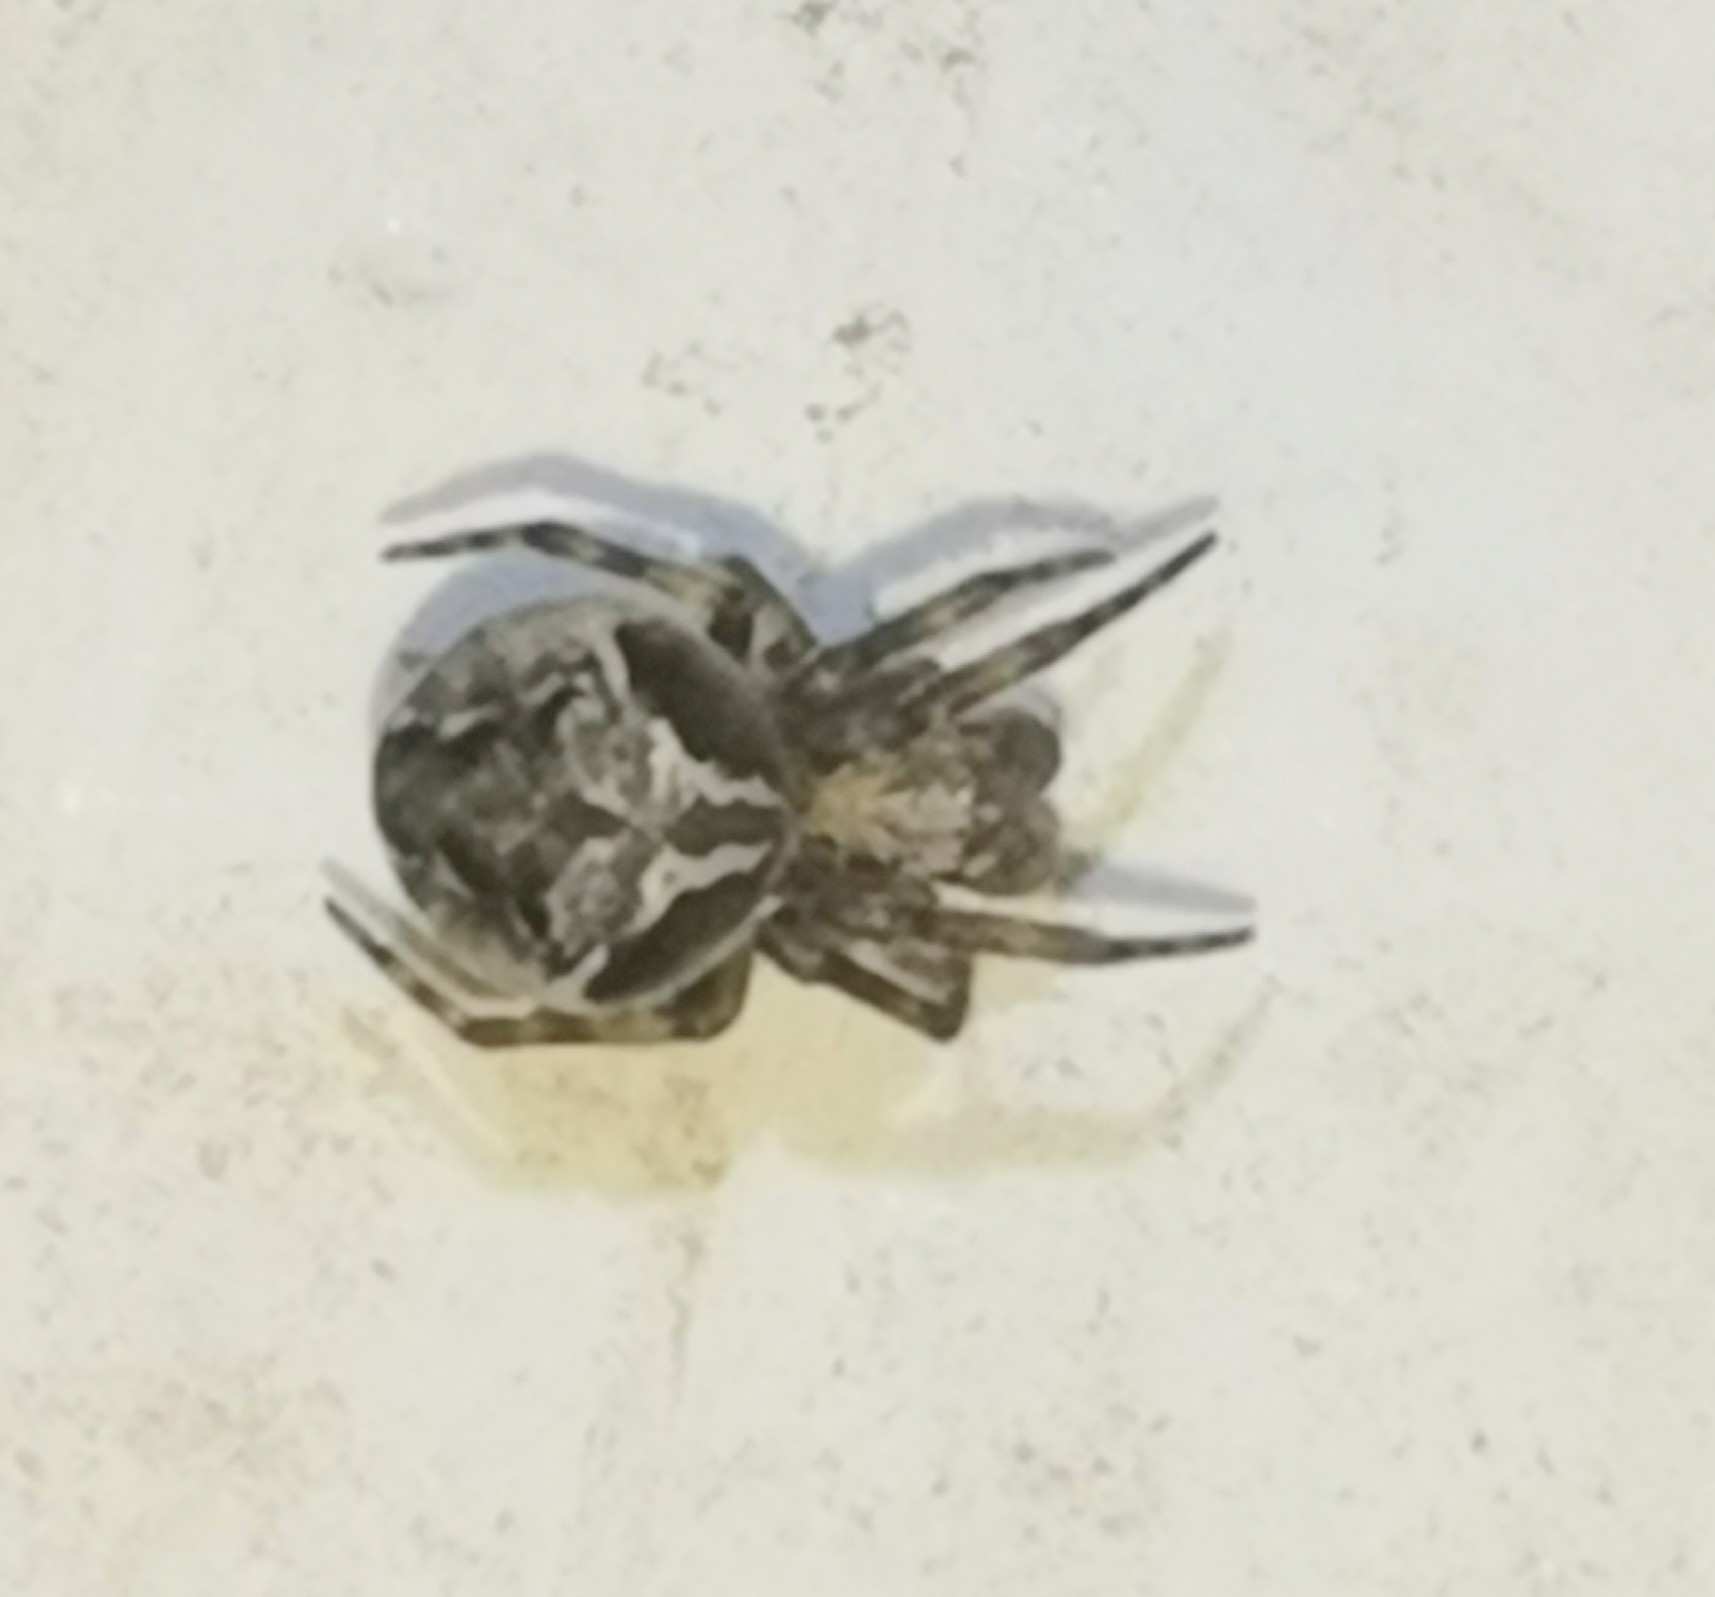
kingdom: Animalia
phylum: Arthropoda
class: Arachnida
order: Araneae
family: Araneidae
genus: Araneus
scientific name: Araneus sturmi
